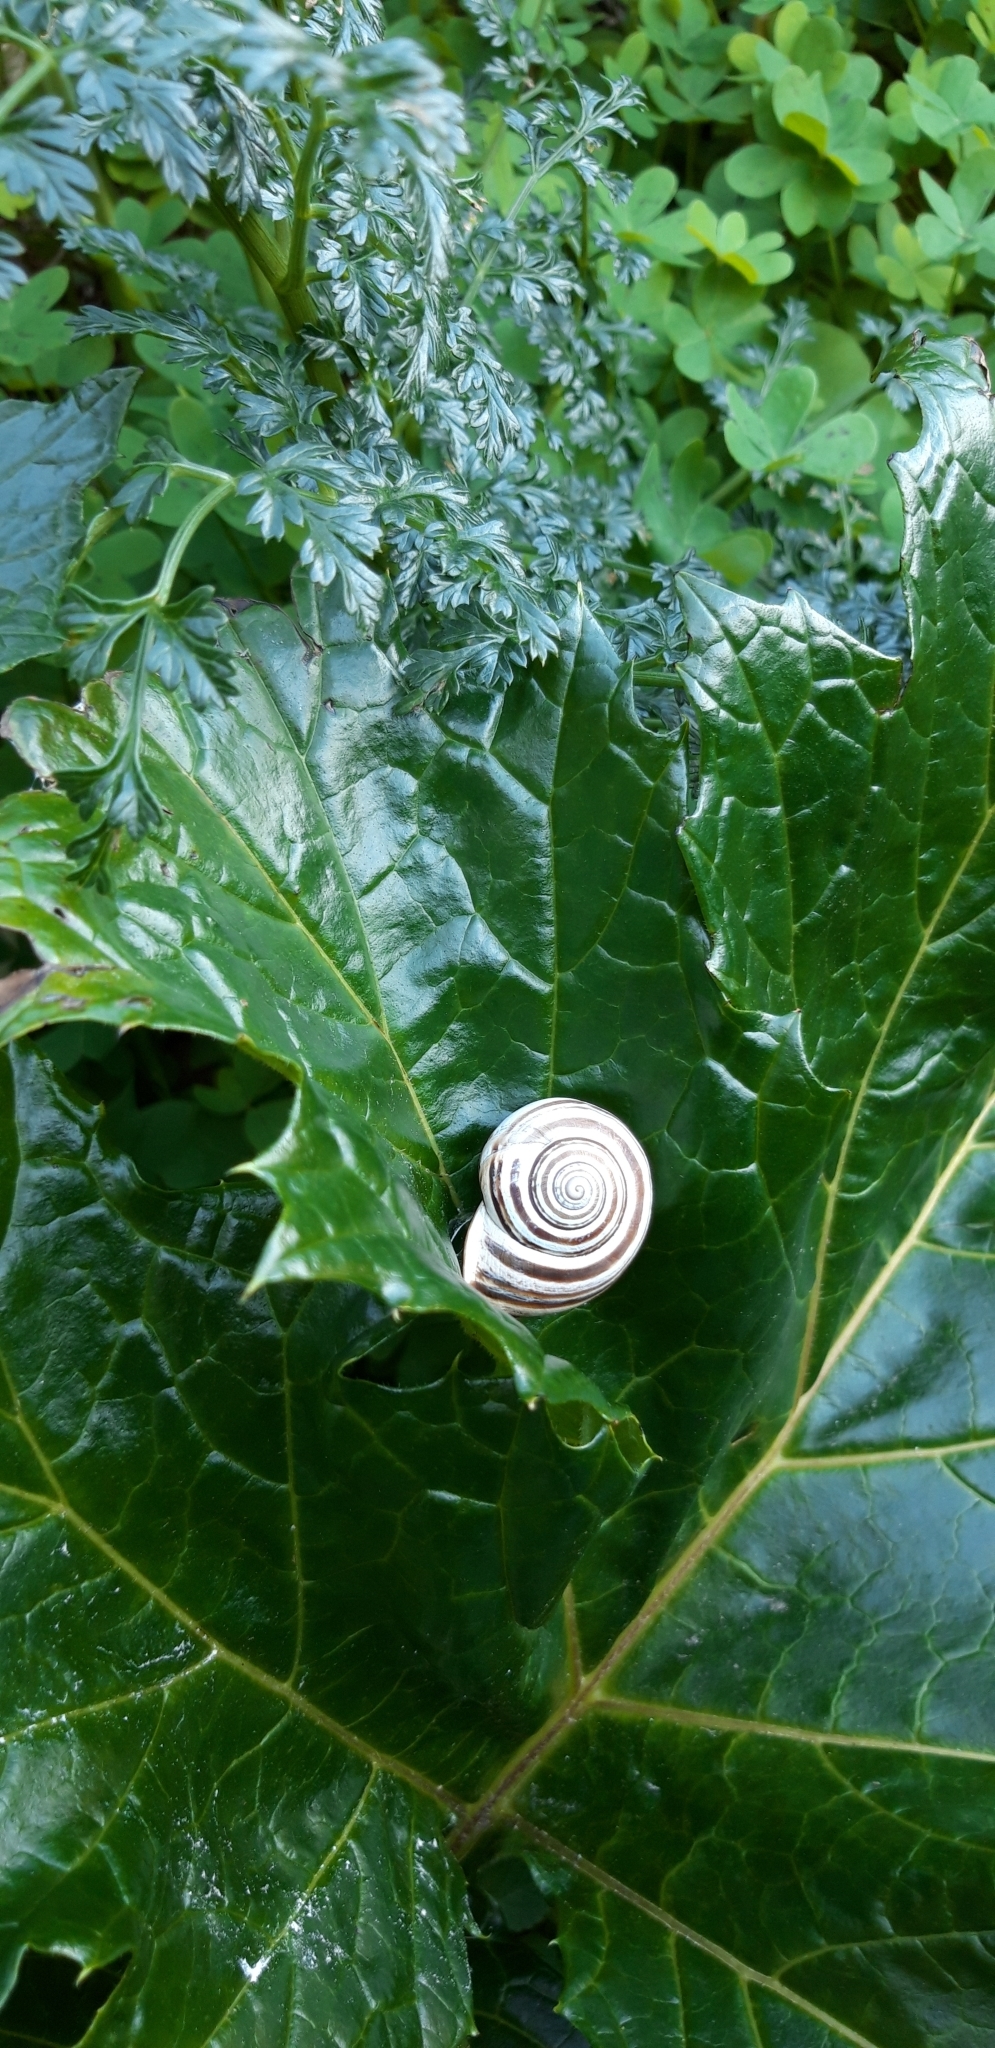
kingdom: Animalia
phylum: Mollusca
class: Gastropoda
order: Stylommatophora
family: Helicidae
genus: Otala
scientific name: Otala lactea
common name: Milk snail
